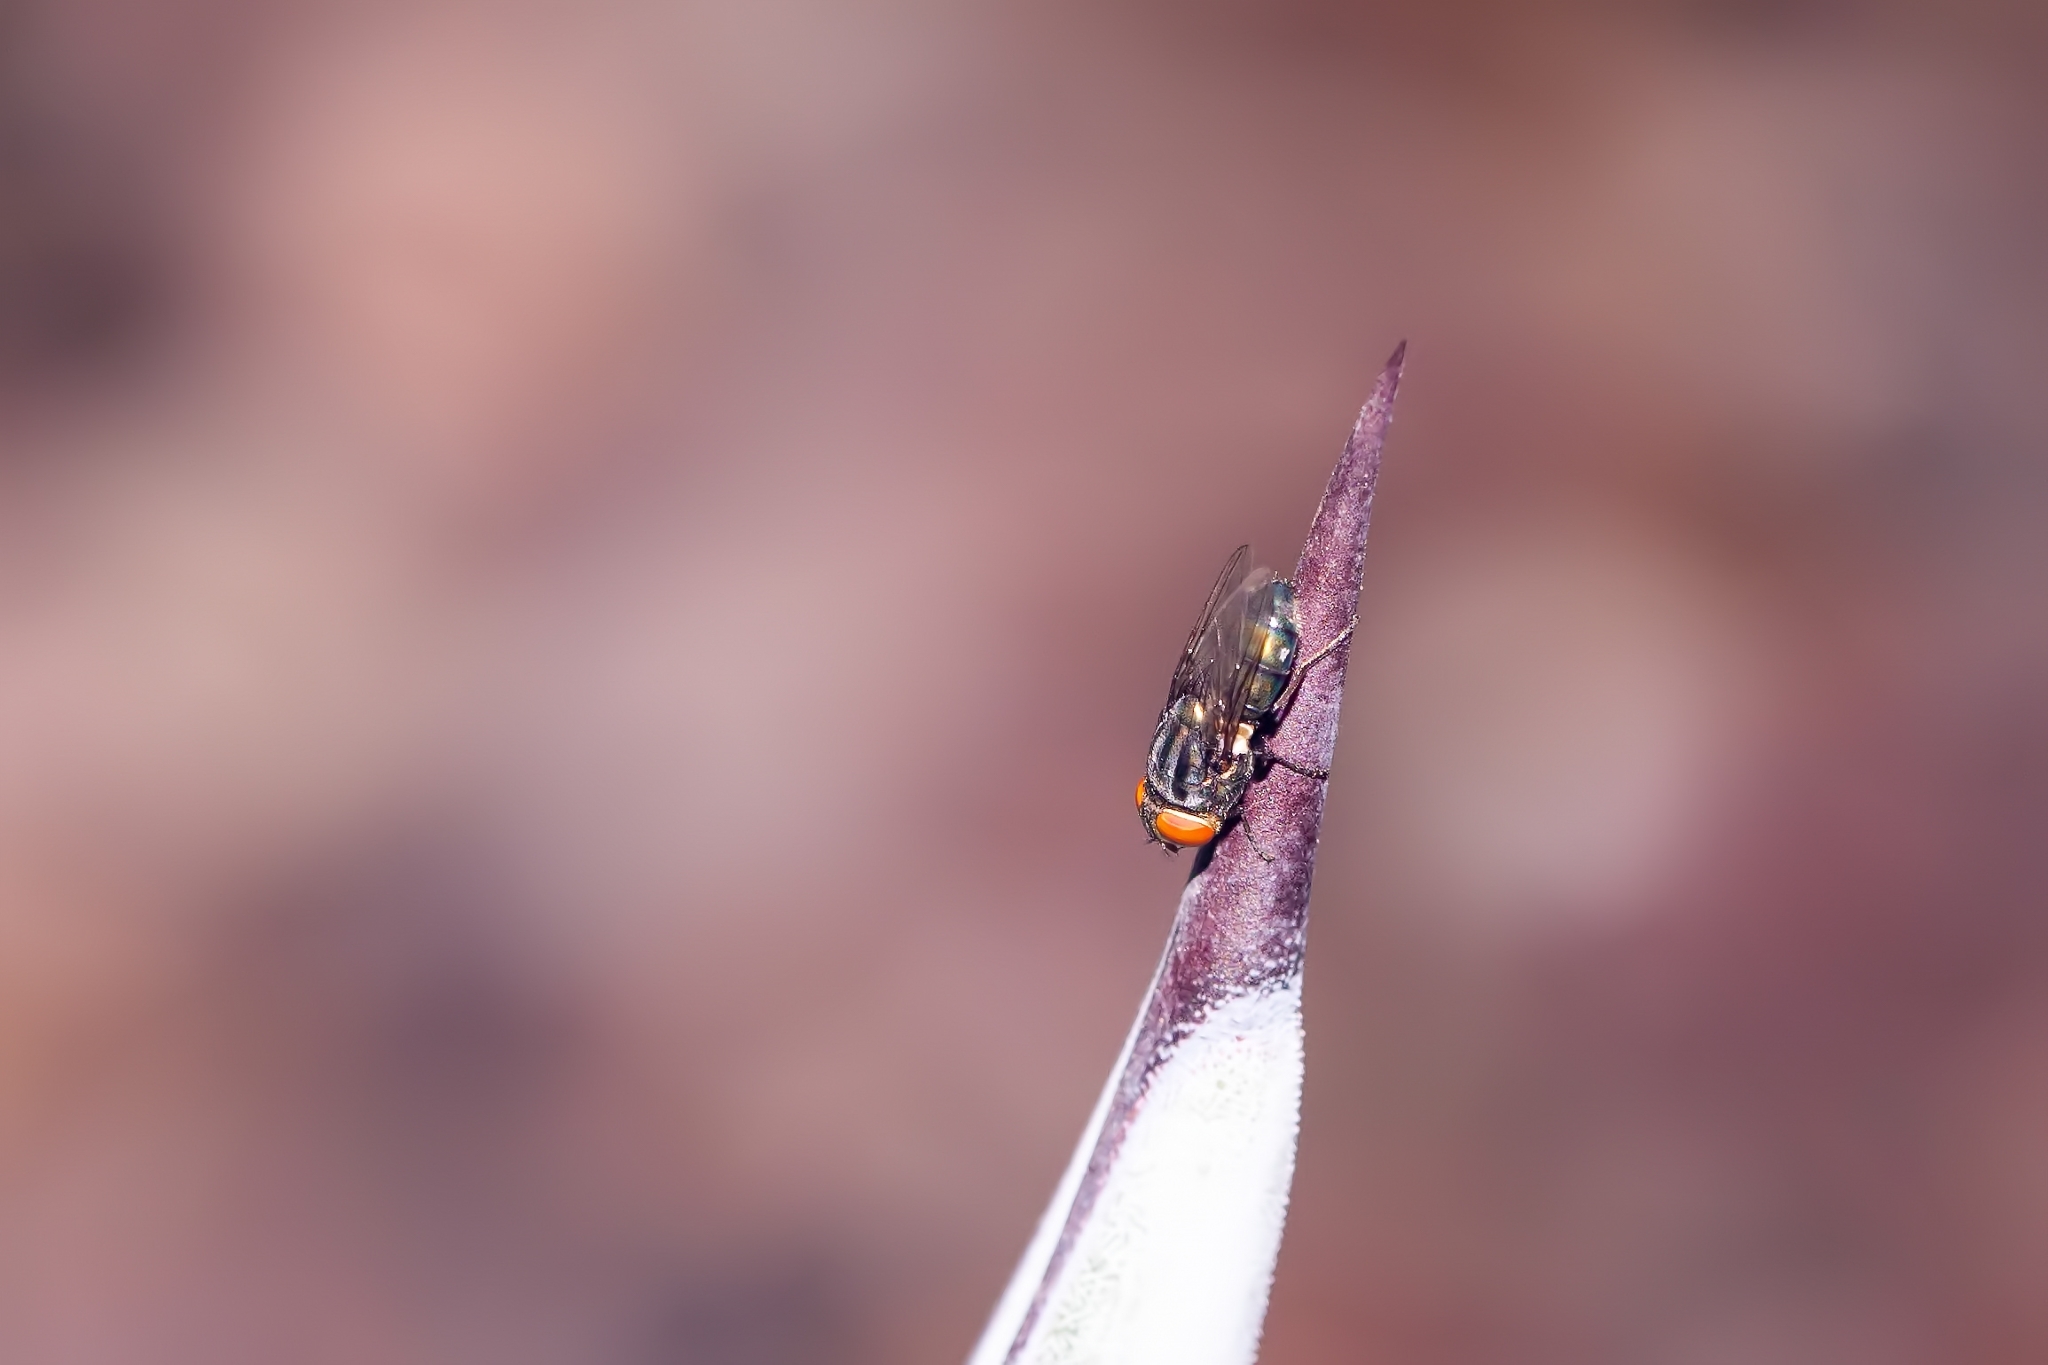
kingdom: Animalia
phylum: Arthropoda
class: Insecta
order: Diptera
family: Calliphoridae
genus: Cochliomyia
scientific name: Cochliomyia macellaria
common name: Secondary screwworm
